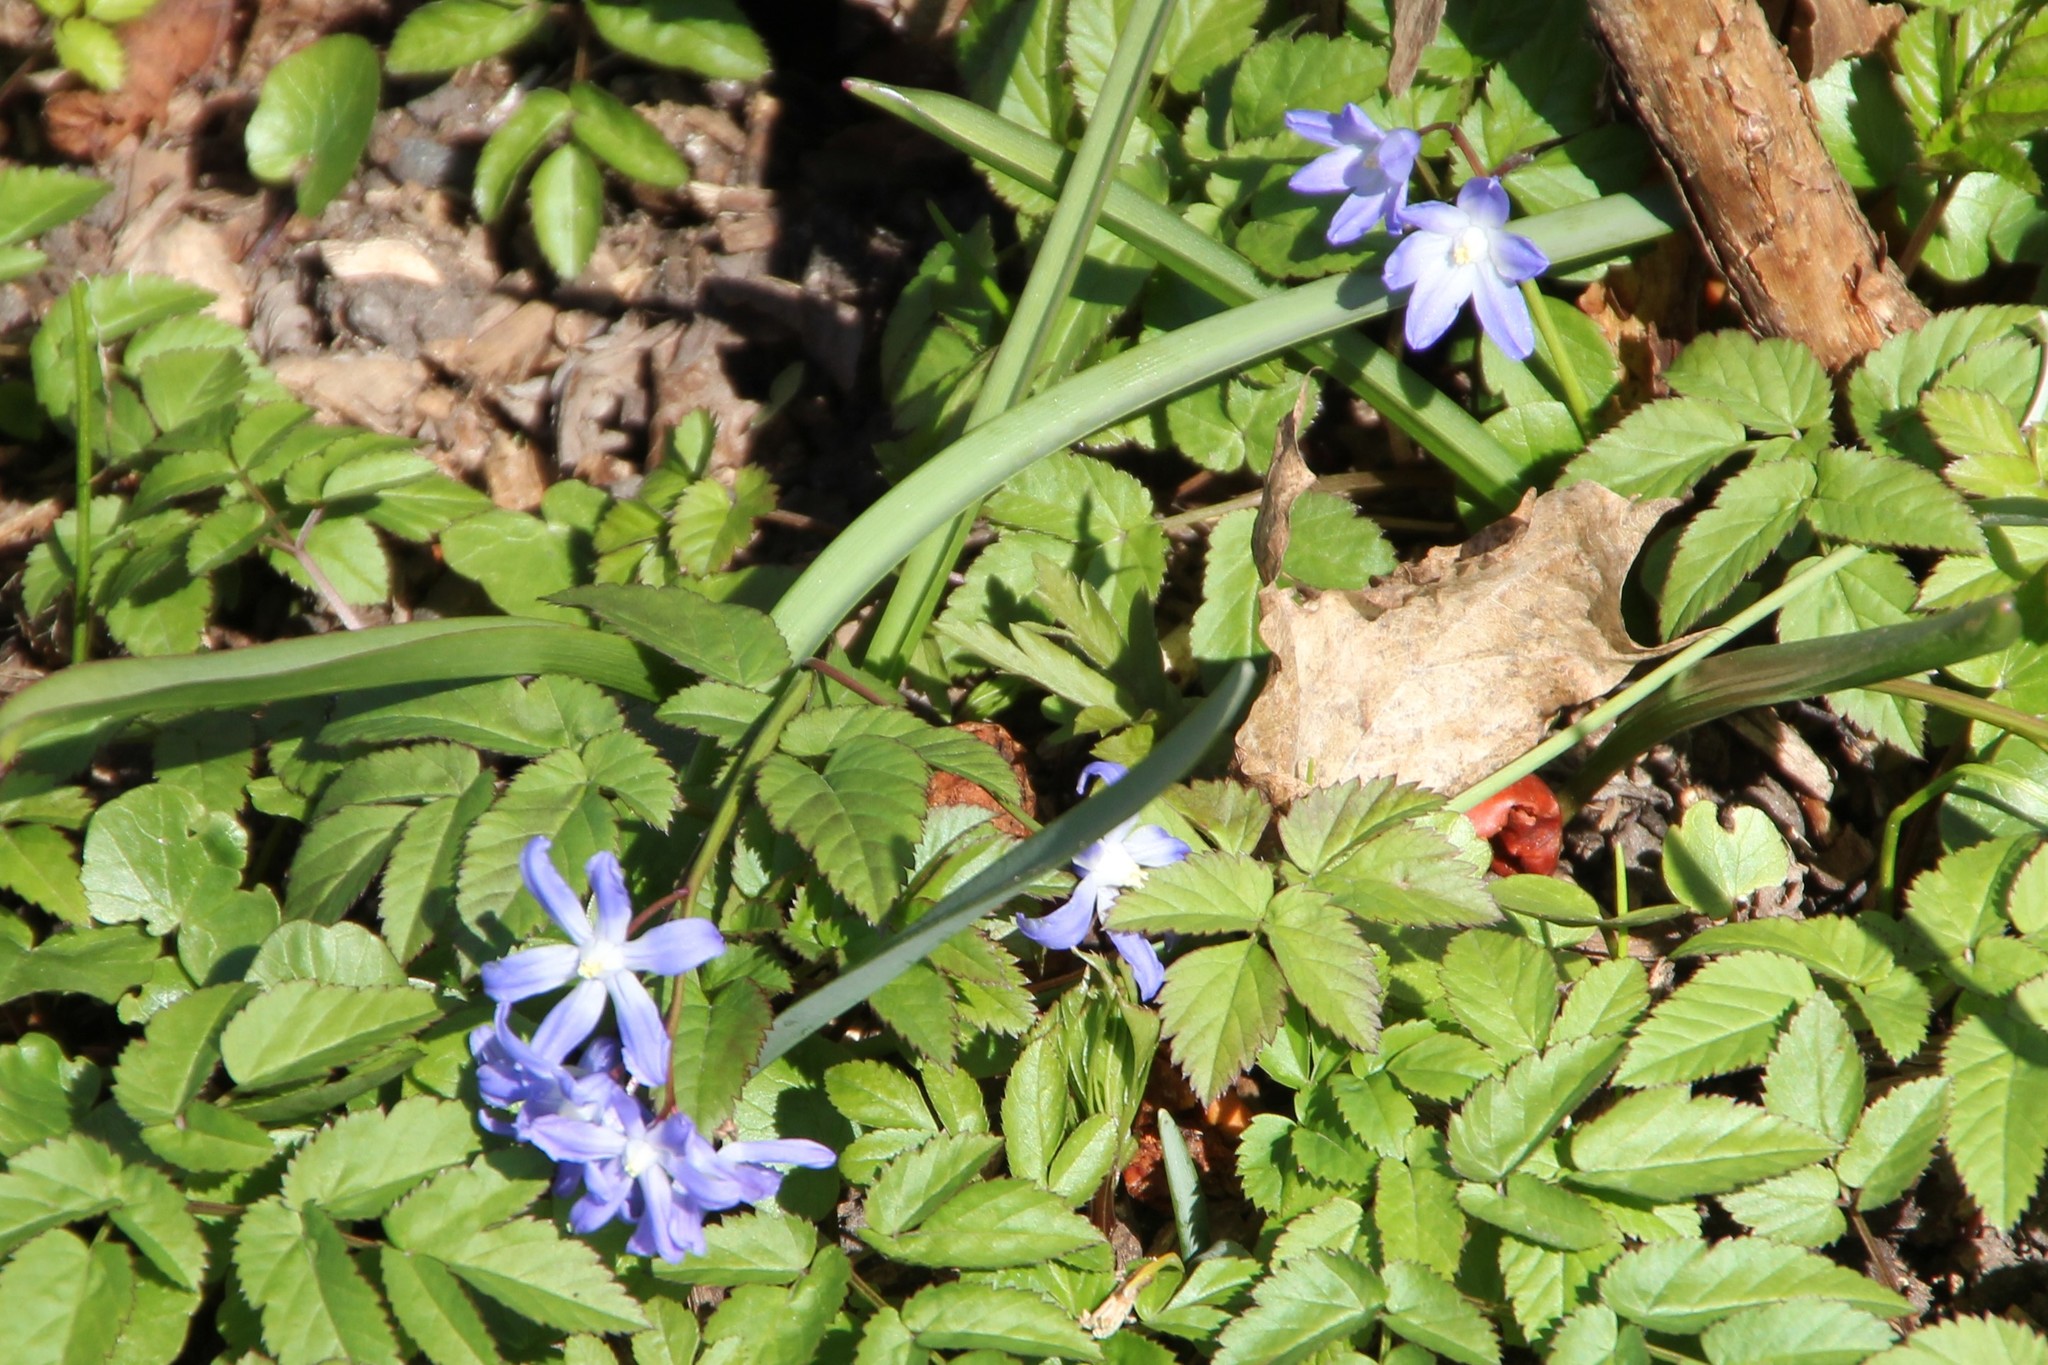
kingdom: Plantae
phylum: Tracheophyta
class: Liliopsida
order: Asparagales
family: Asparagaceae
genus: Scilla
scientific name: Scilla forbesii
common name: Glory-of-the-snow
